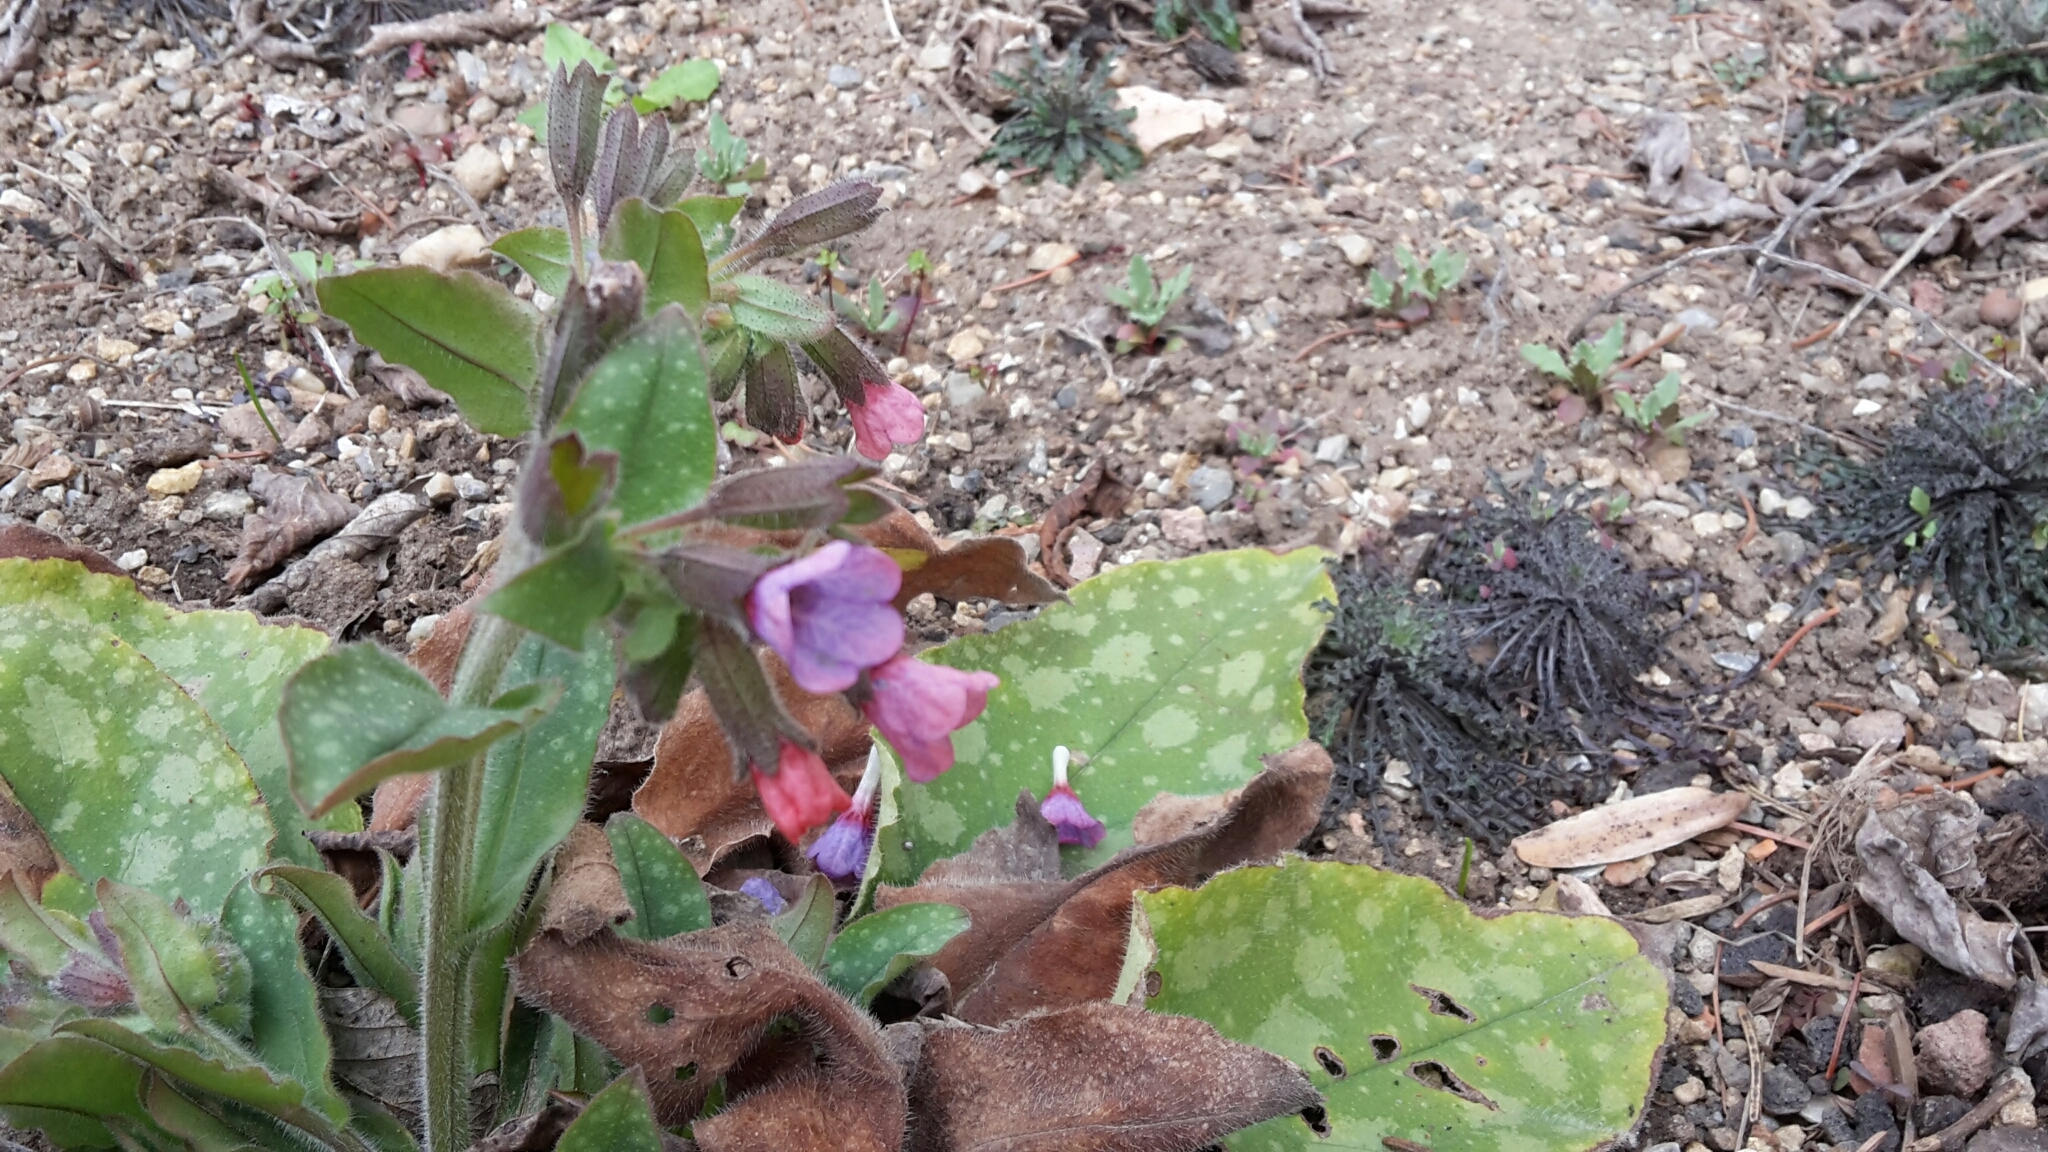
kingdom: Plantae
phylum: Tracheophyta
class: Magnoliopsida
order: Boraginales
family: Boraginaceae
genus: Pulmonaria
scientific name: Pulmonaria officinalis
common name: Lungwort
